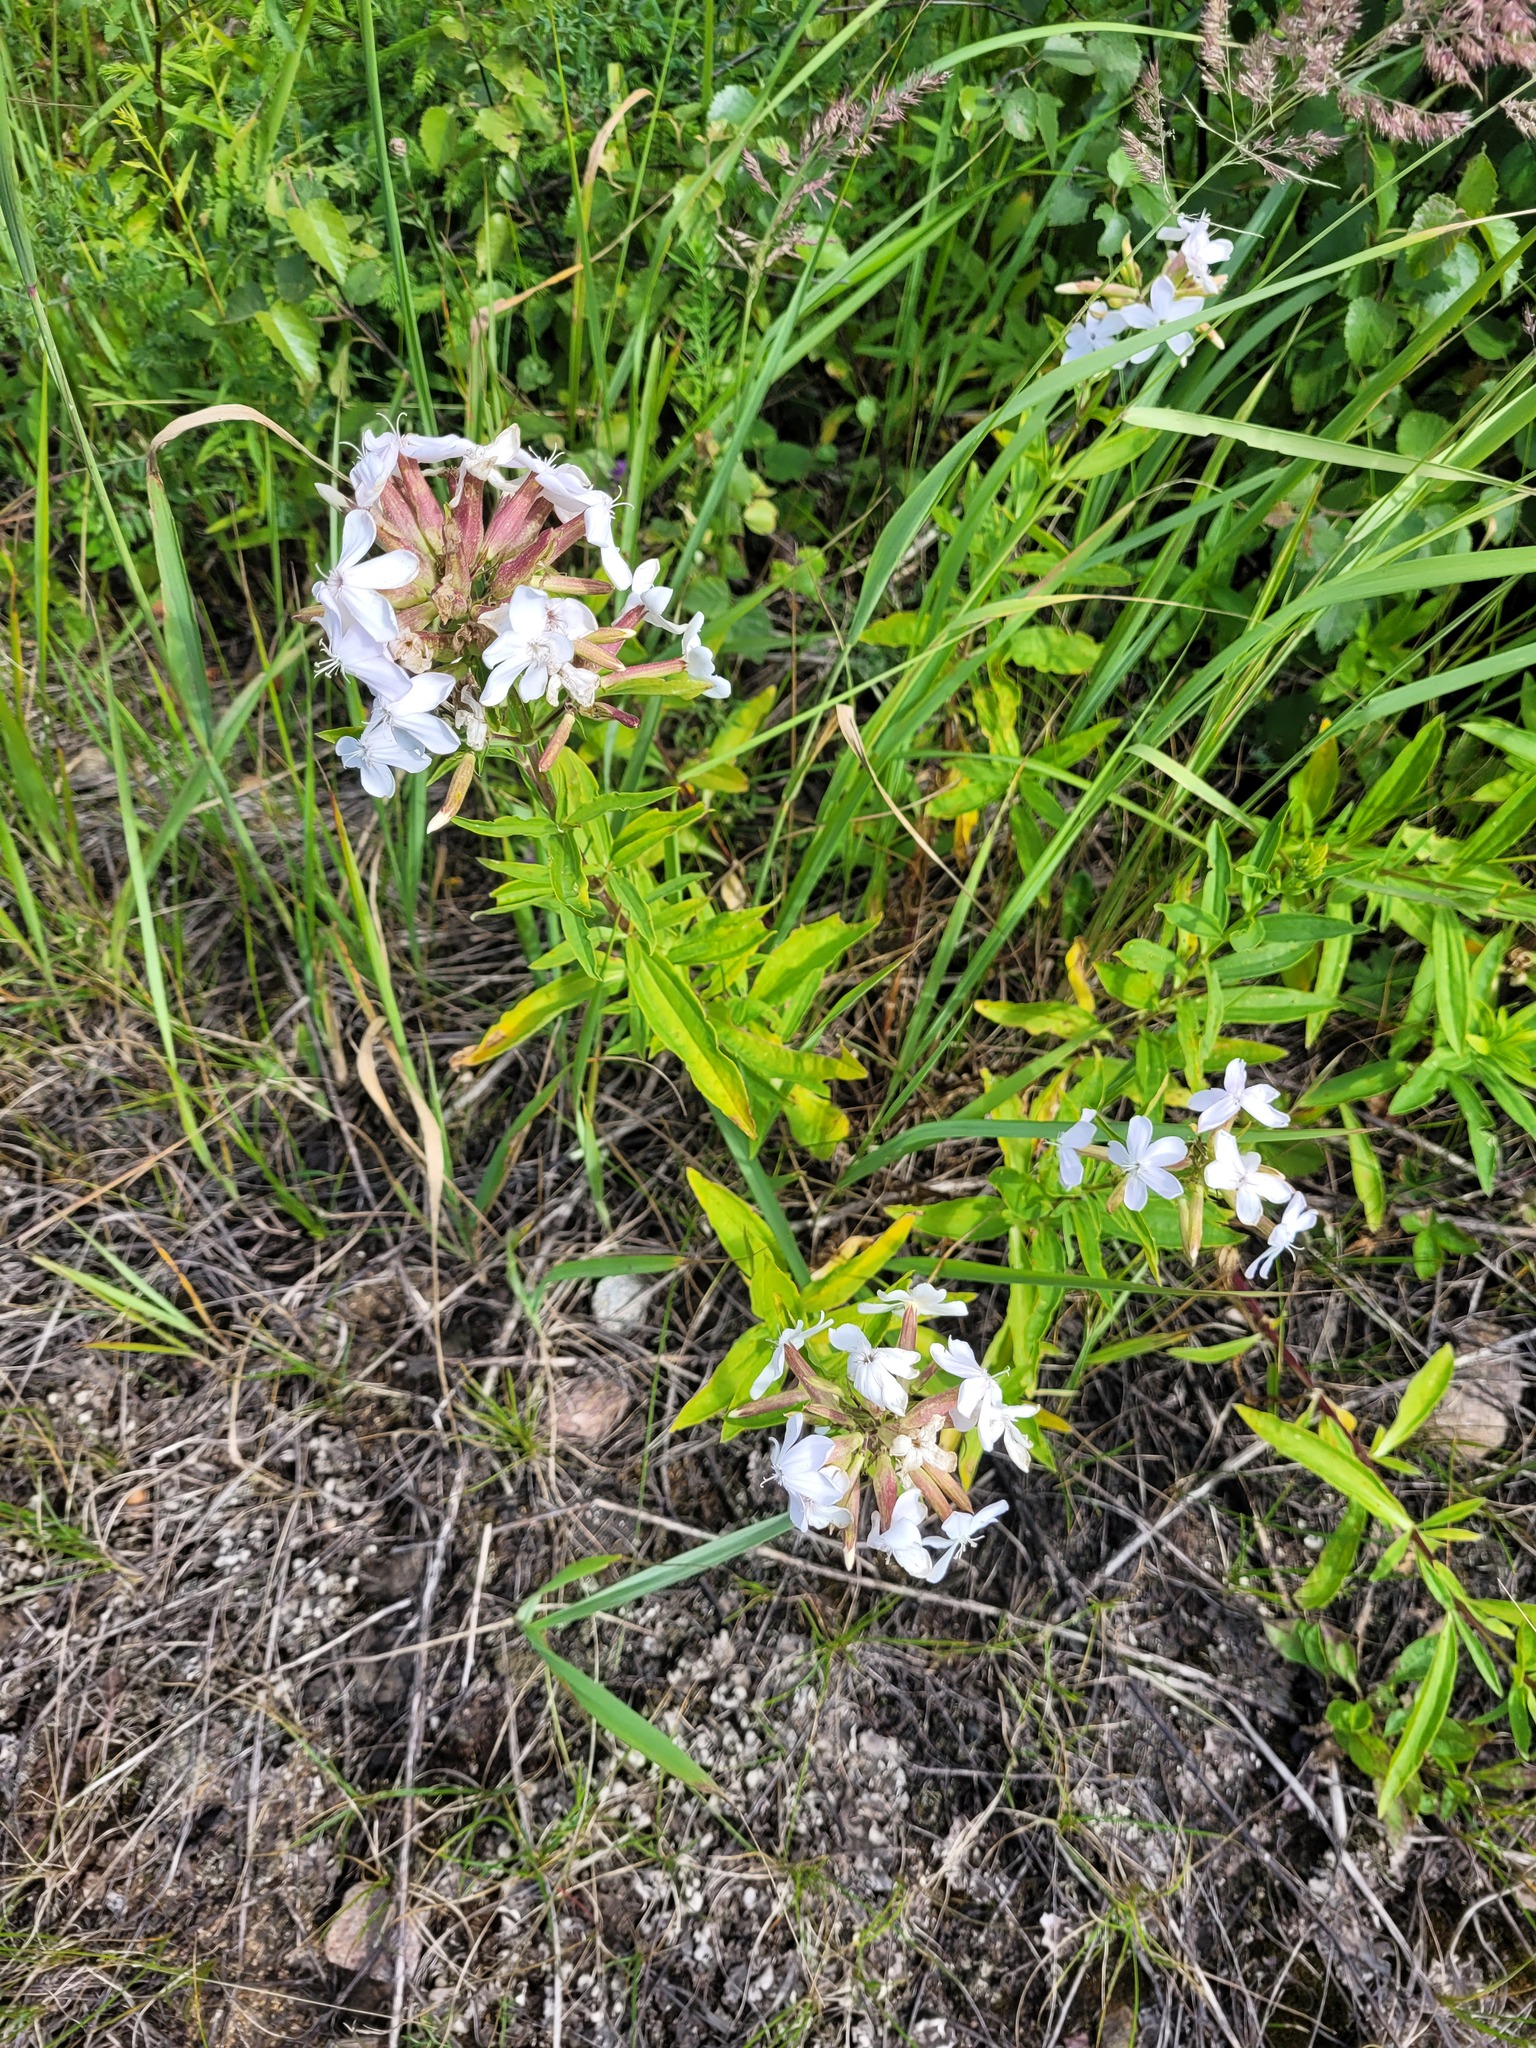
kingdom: Plantae
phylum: Tracheophyta
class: Magnoliopsida
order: Caryophyllales
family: Caryophyllaceae
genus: Saponaria
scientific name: Saponaria officinalis
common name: Soapwort
